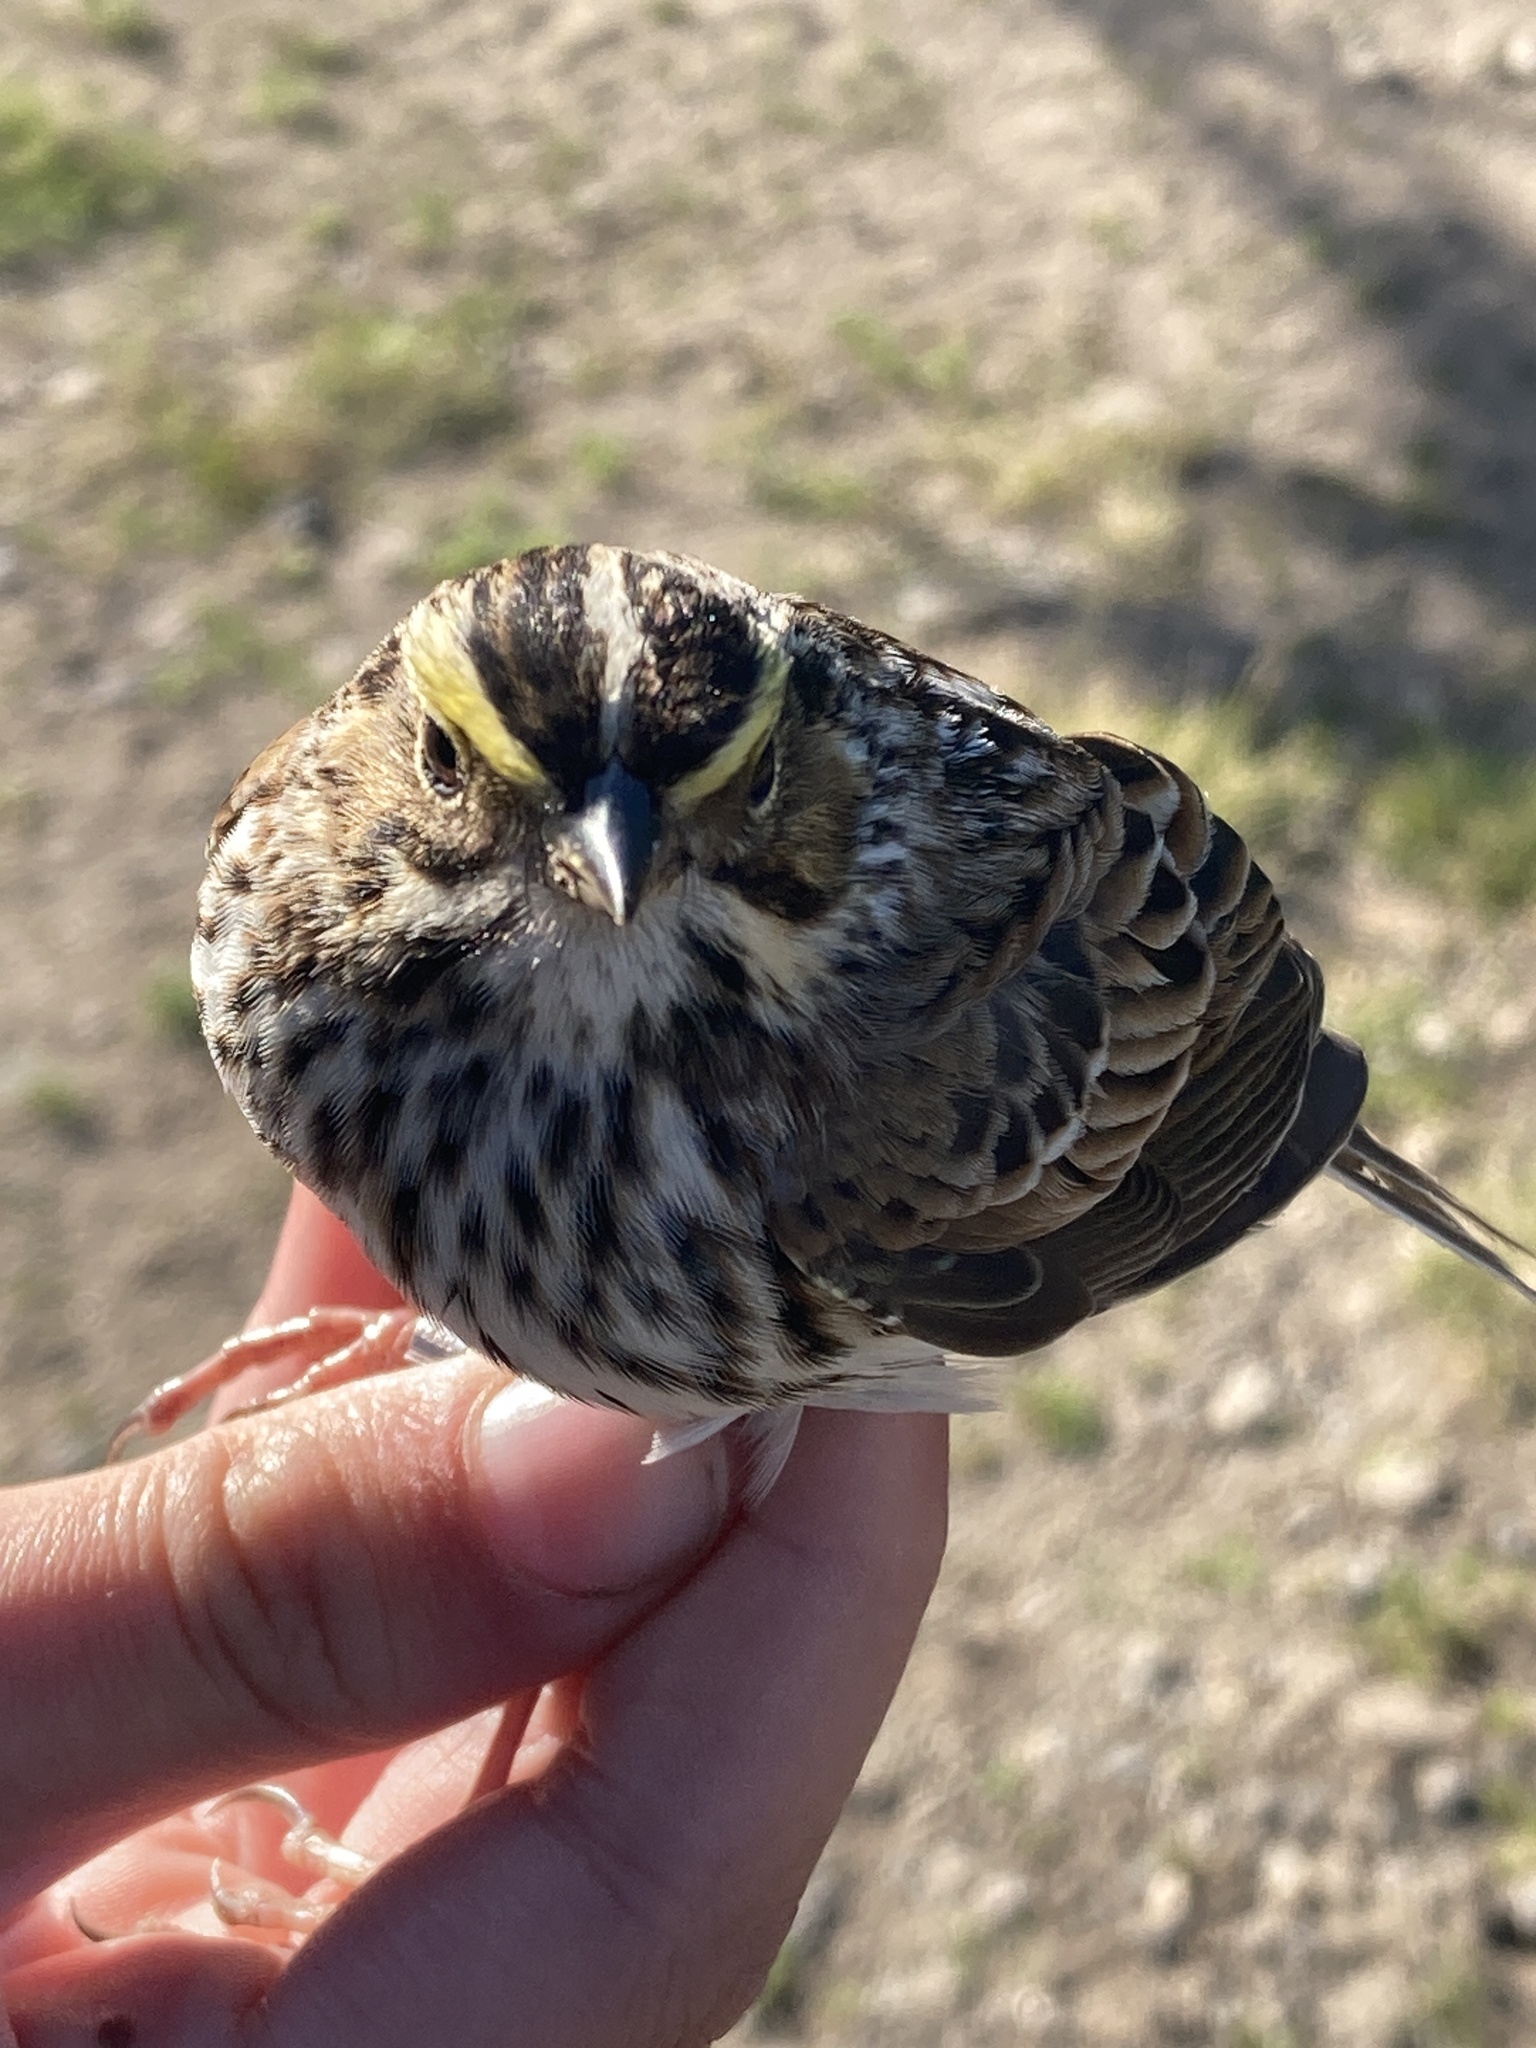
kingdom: Animalia
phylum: Chordata
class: Aves
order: Passeriformes
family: Passerellidae
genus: Passerculus
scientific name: Passerculus sandwichensis
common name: Savannah sparrow
